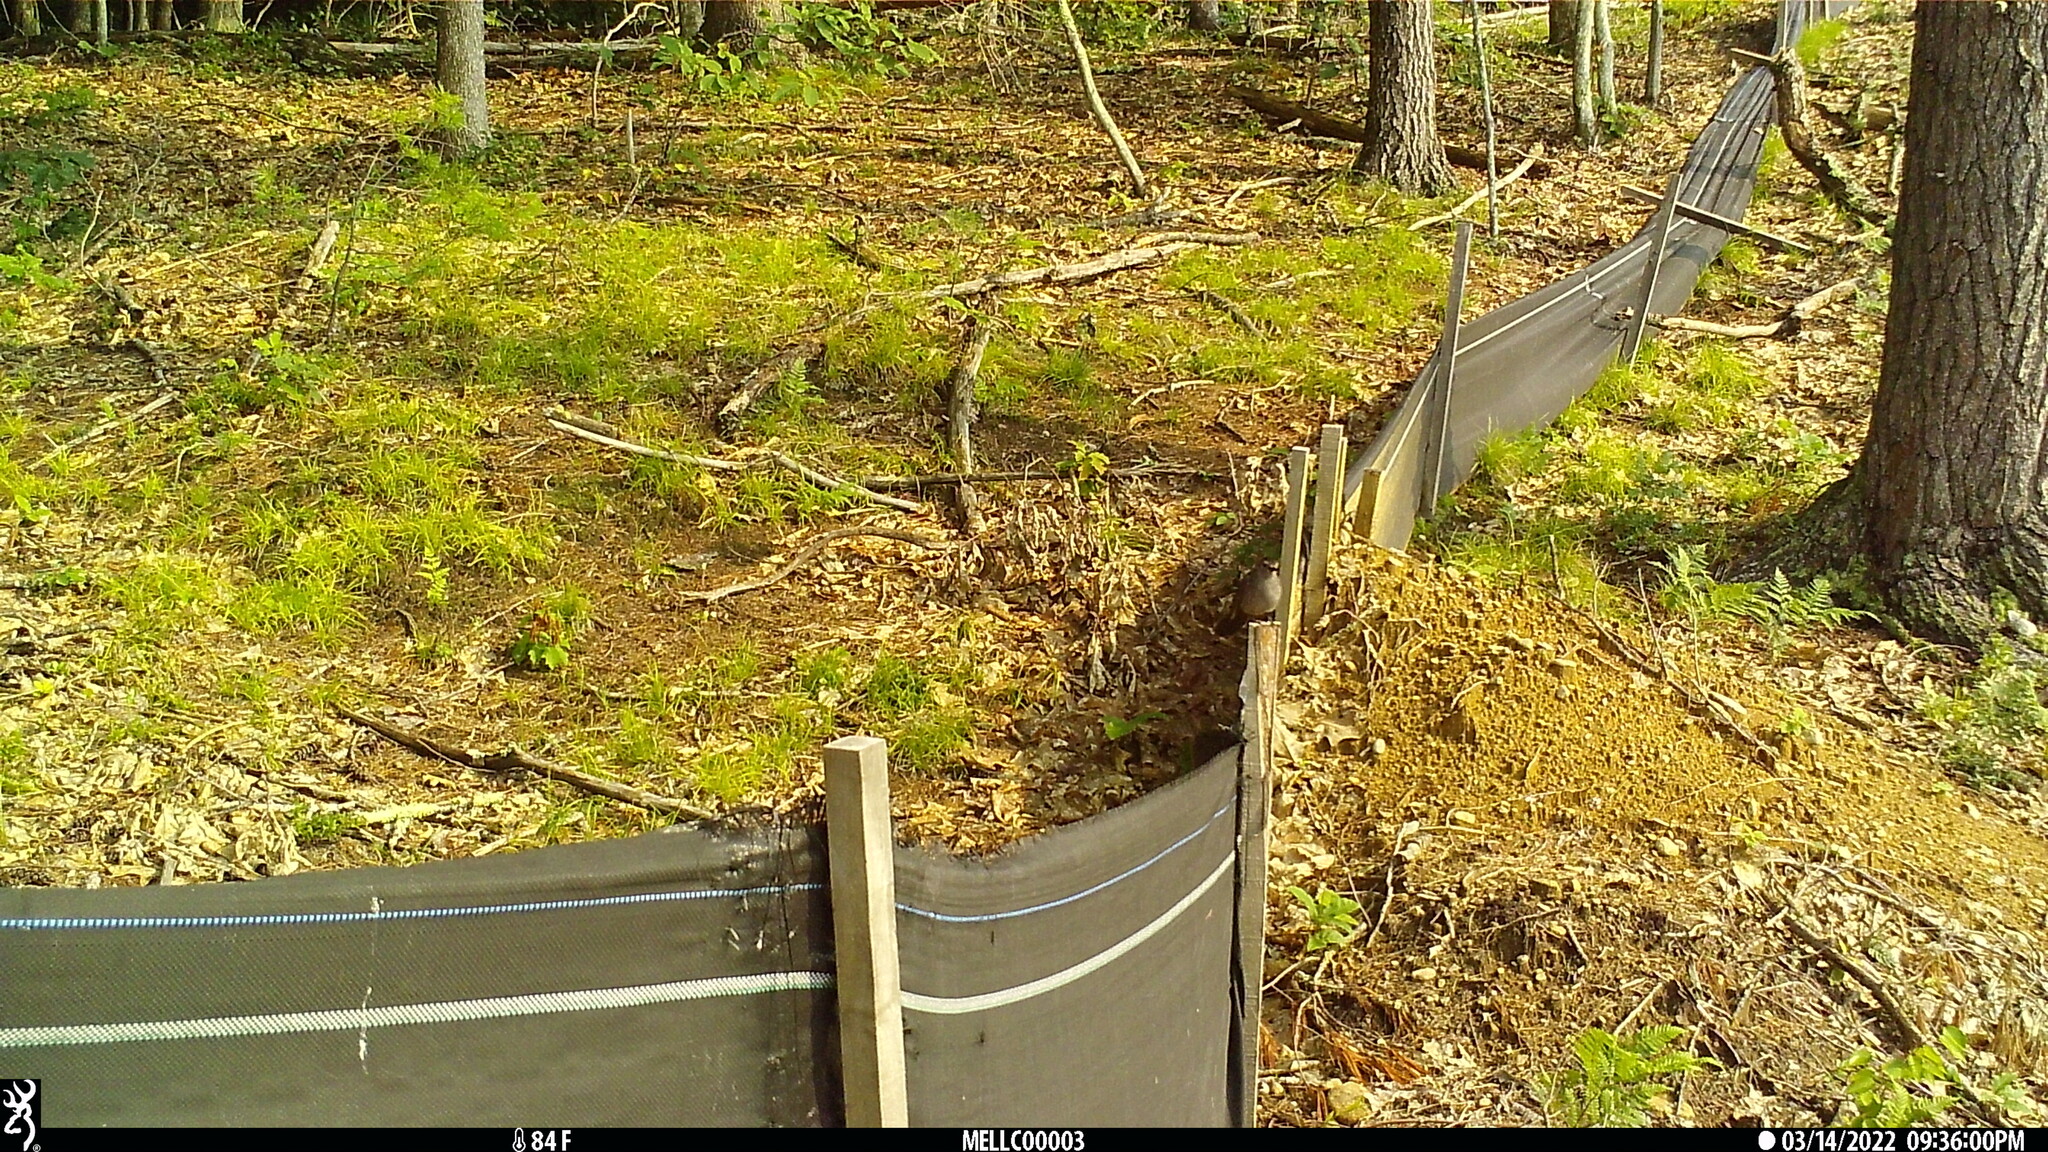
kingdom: Animalia
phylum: Chordata
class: Aves
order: Passeriformes
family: Mimidae
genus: Dumetella
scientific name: Dumetella carolinensis
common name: Gray catbird
